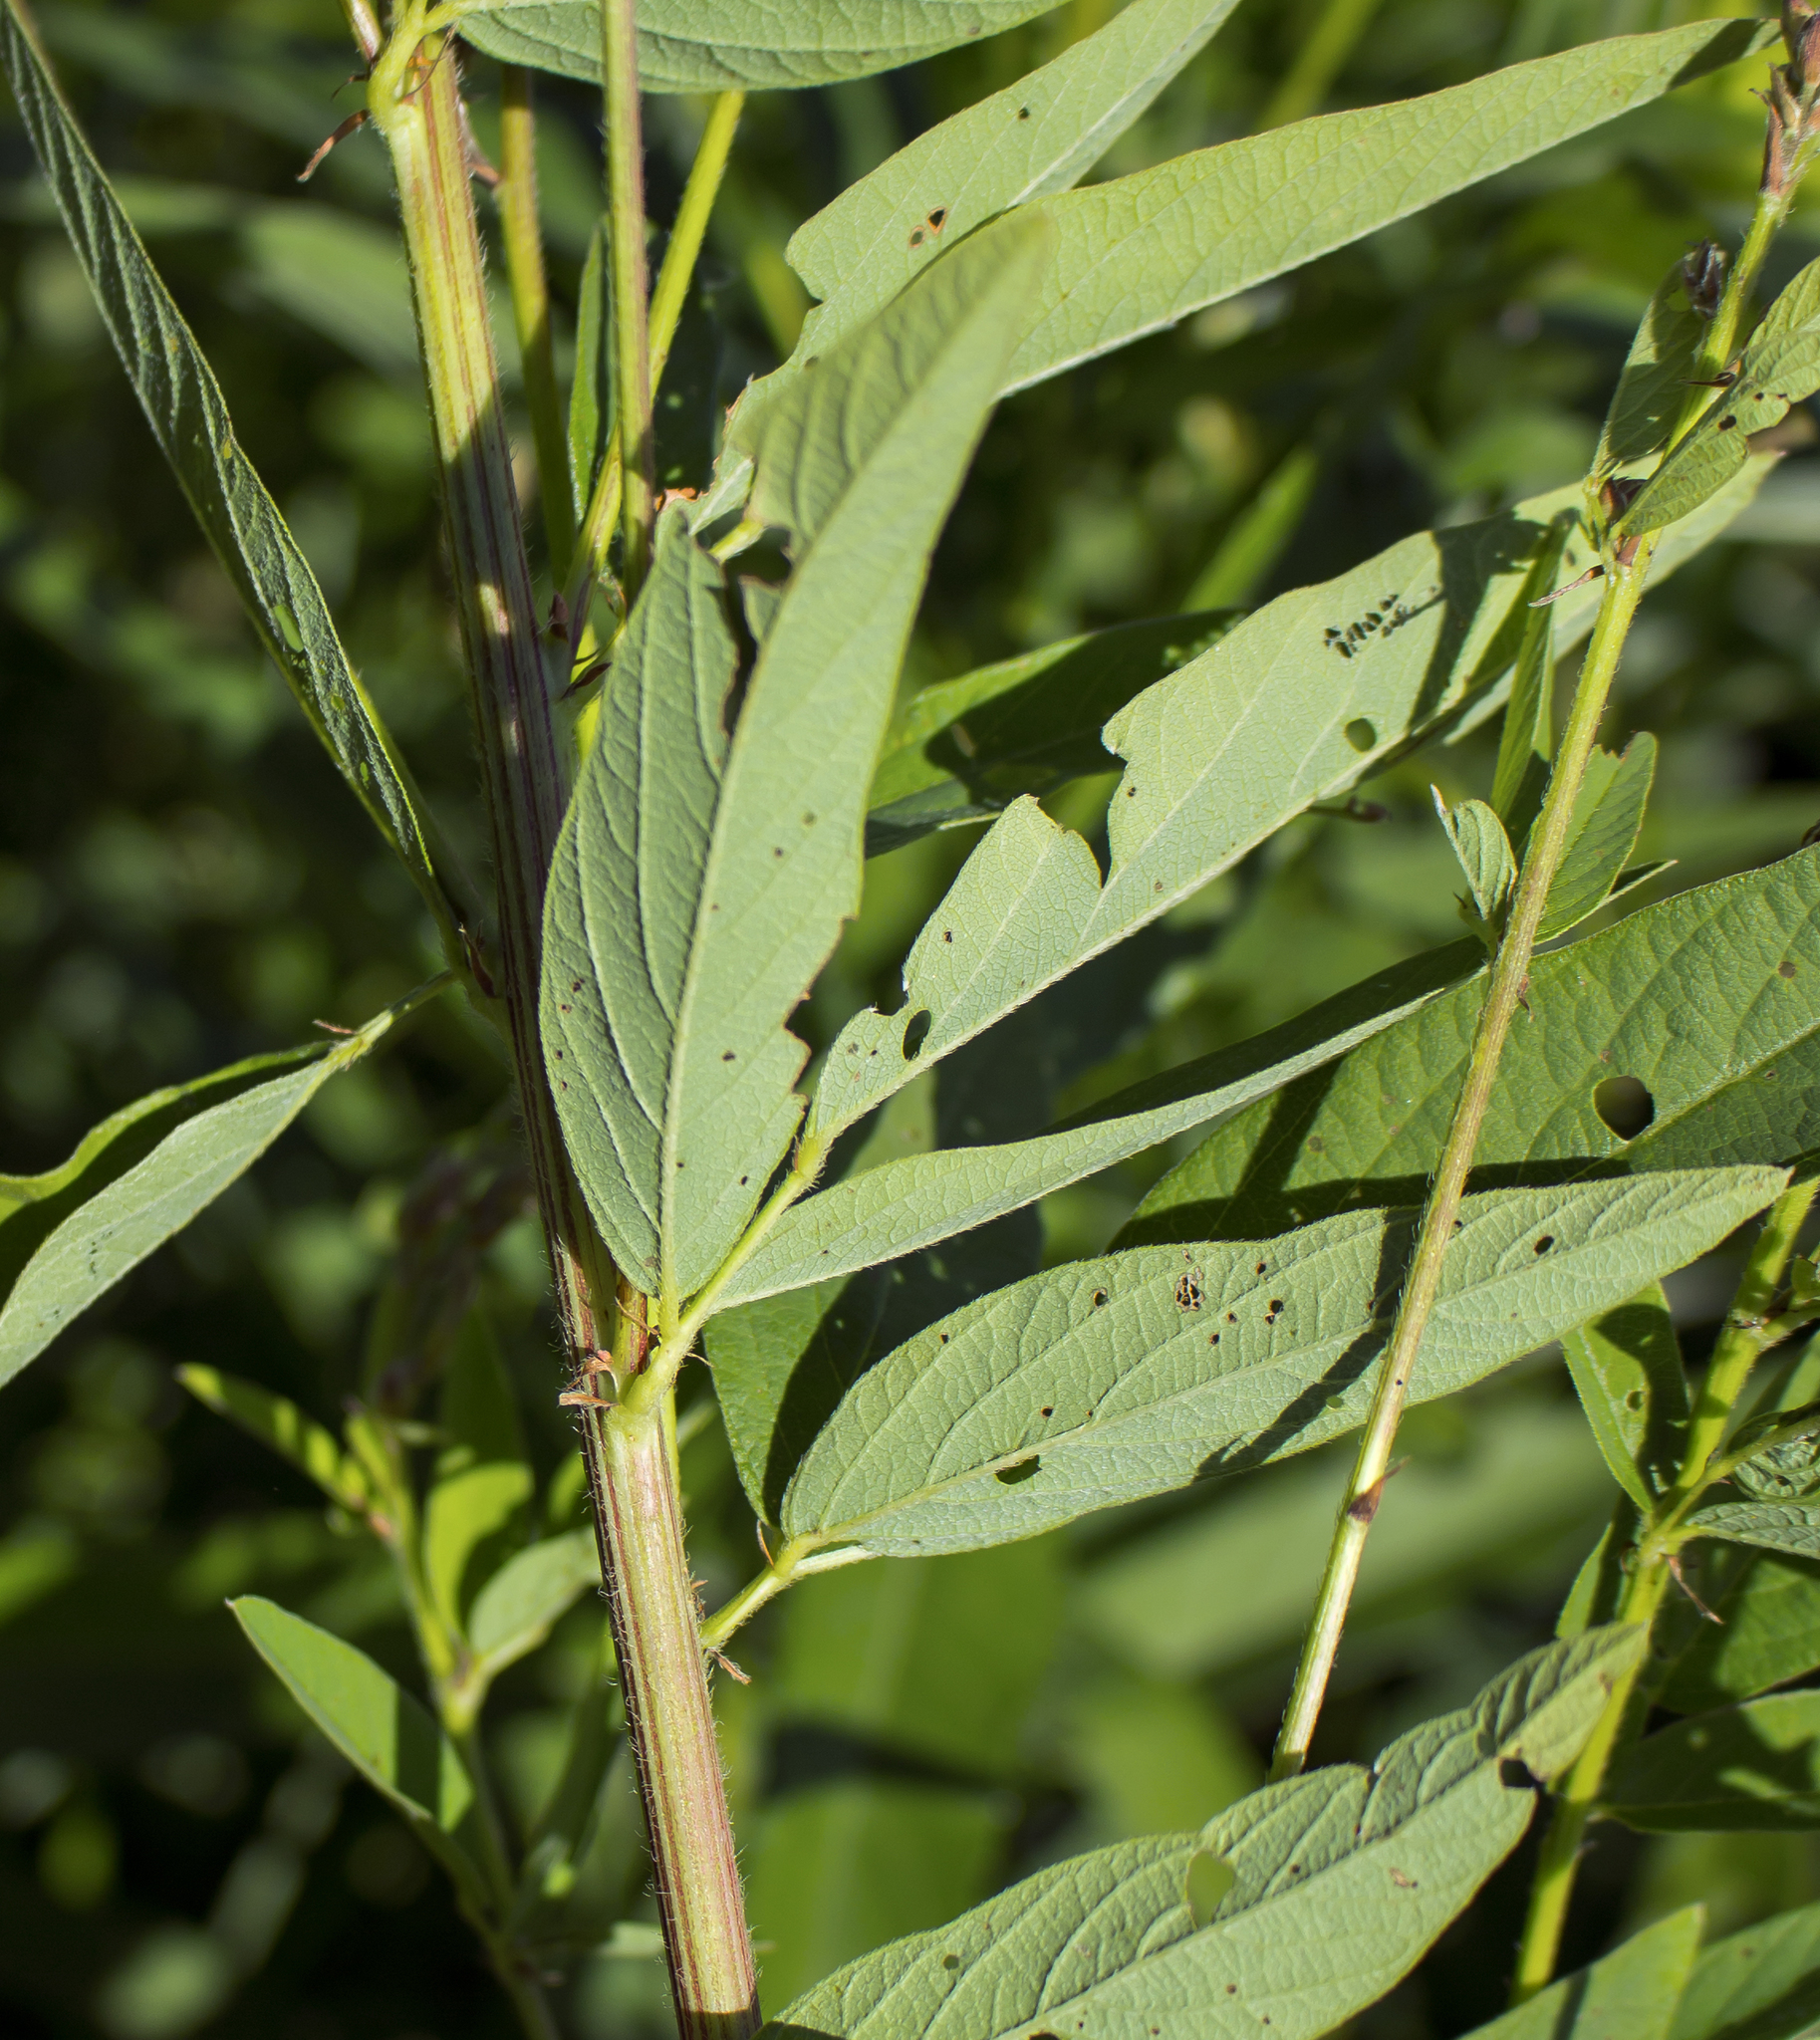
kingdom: Plantae
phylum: Tracheophyta
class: Magnoliopsida
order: Fabales
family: Fabaceae
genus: Desmodium
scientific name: Desmodium canadense
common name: Canada tick-trefoil
